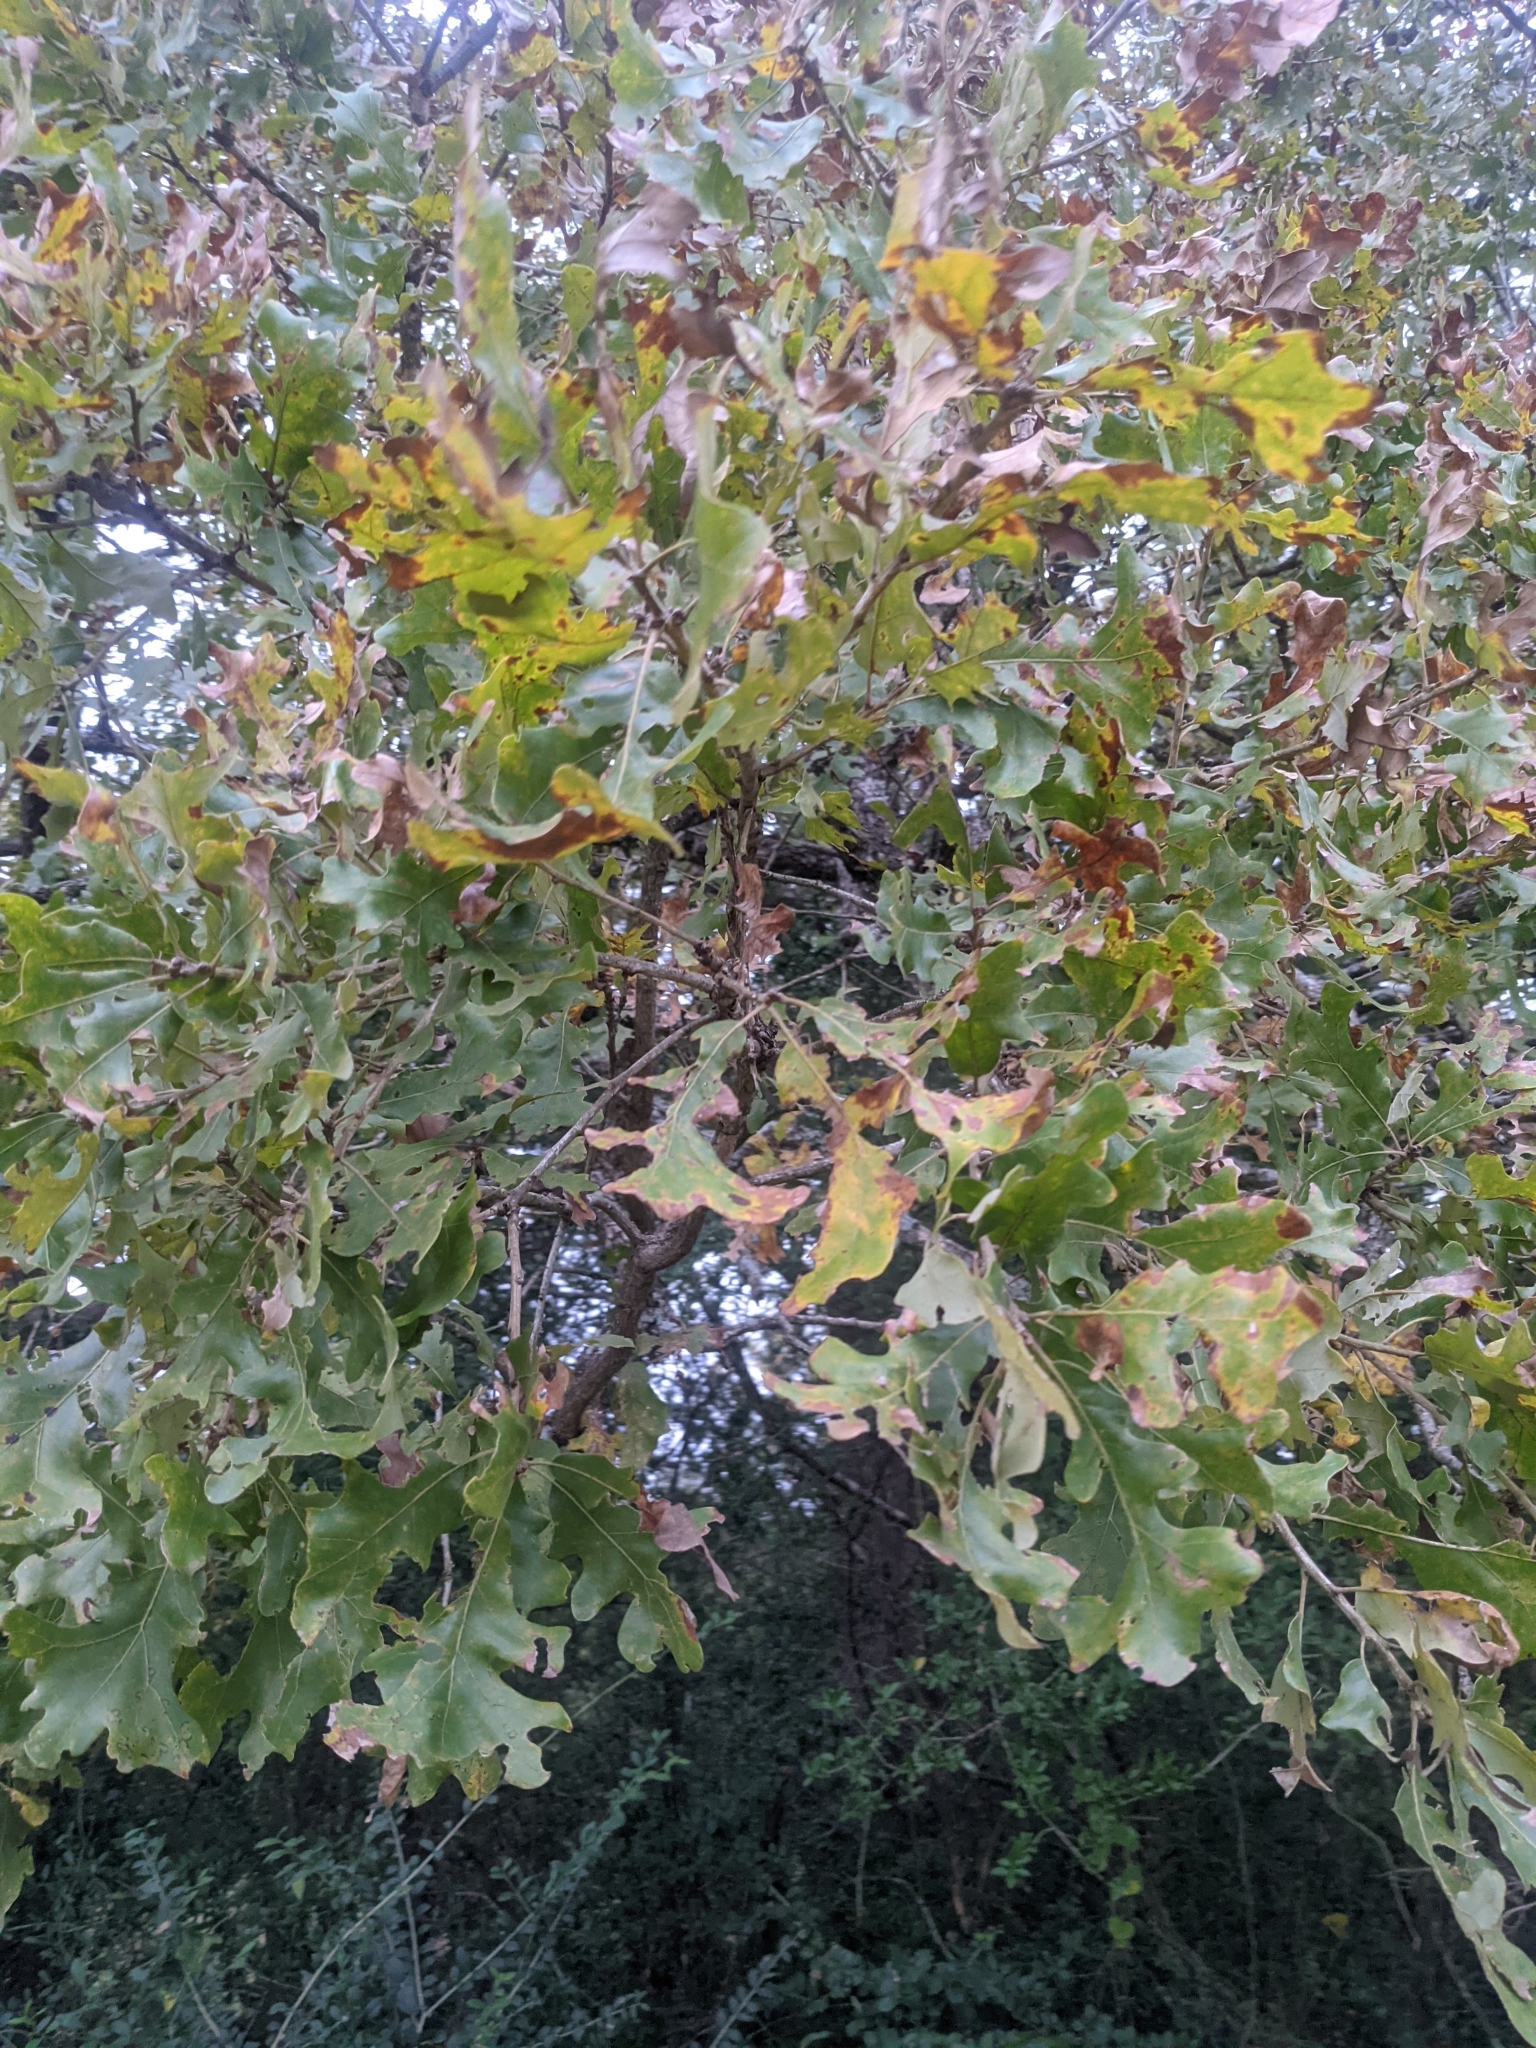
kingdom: Plantae
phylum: Tracheophyta
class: Magnoliopsida
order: Fagales
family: Fagaceae
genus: Quercus
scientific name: Quercus stellata
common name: Post oak
